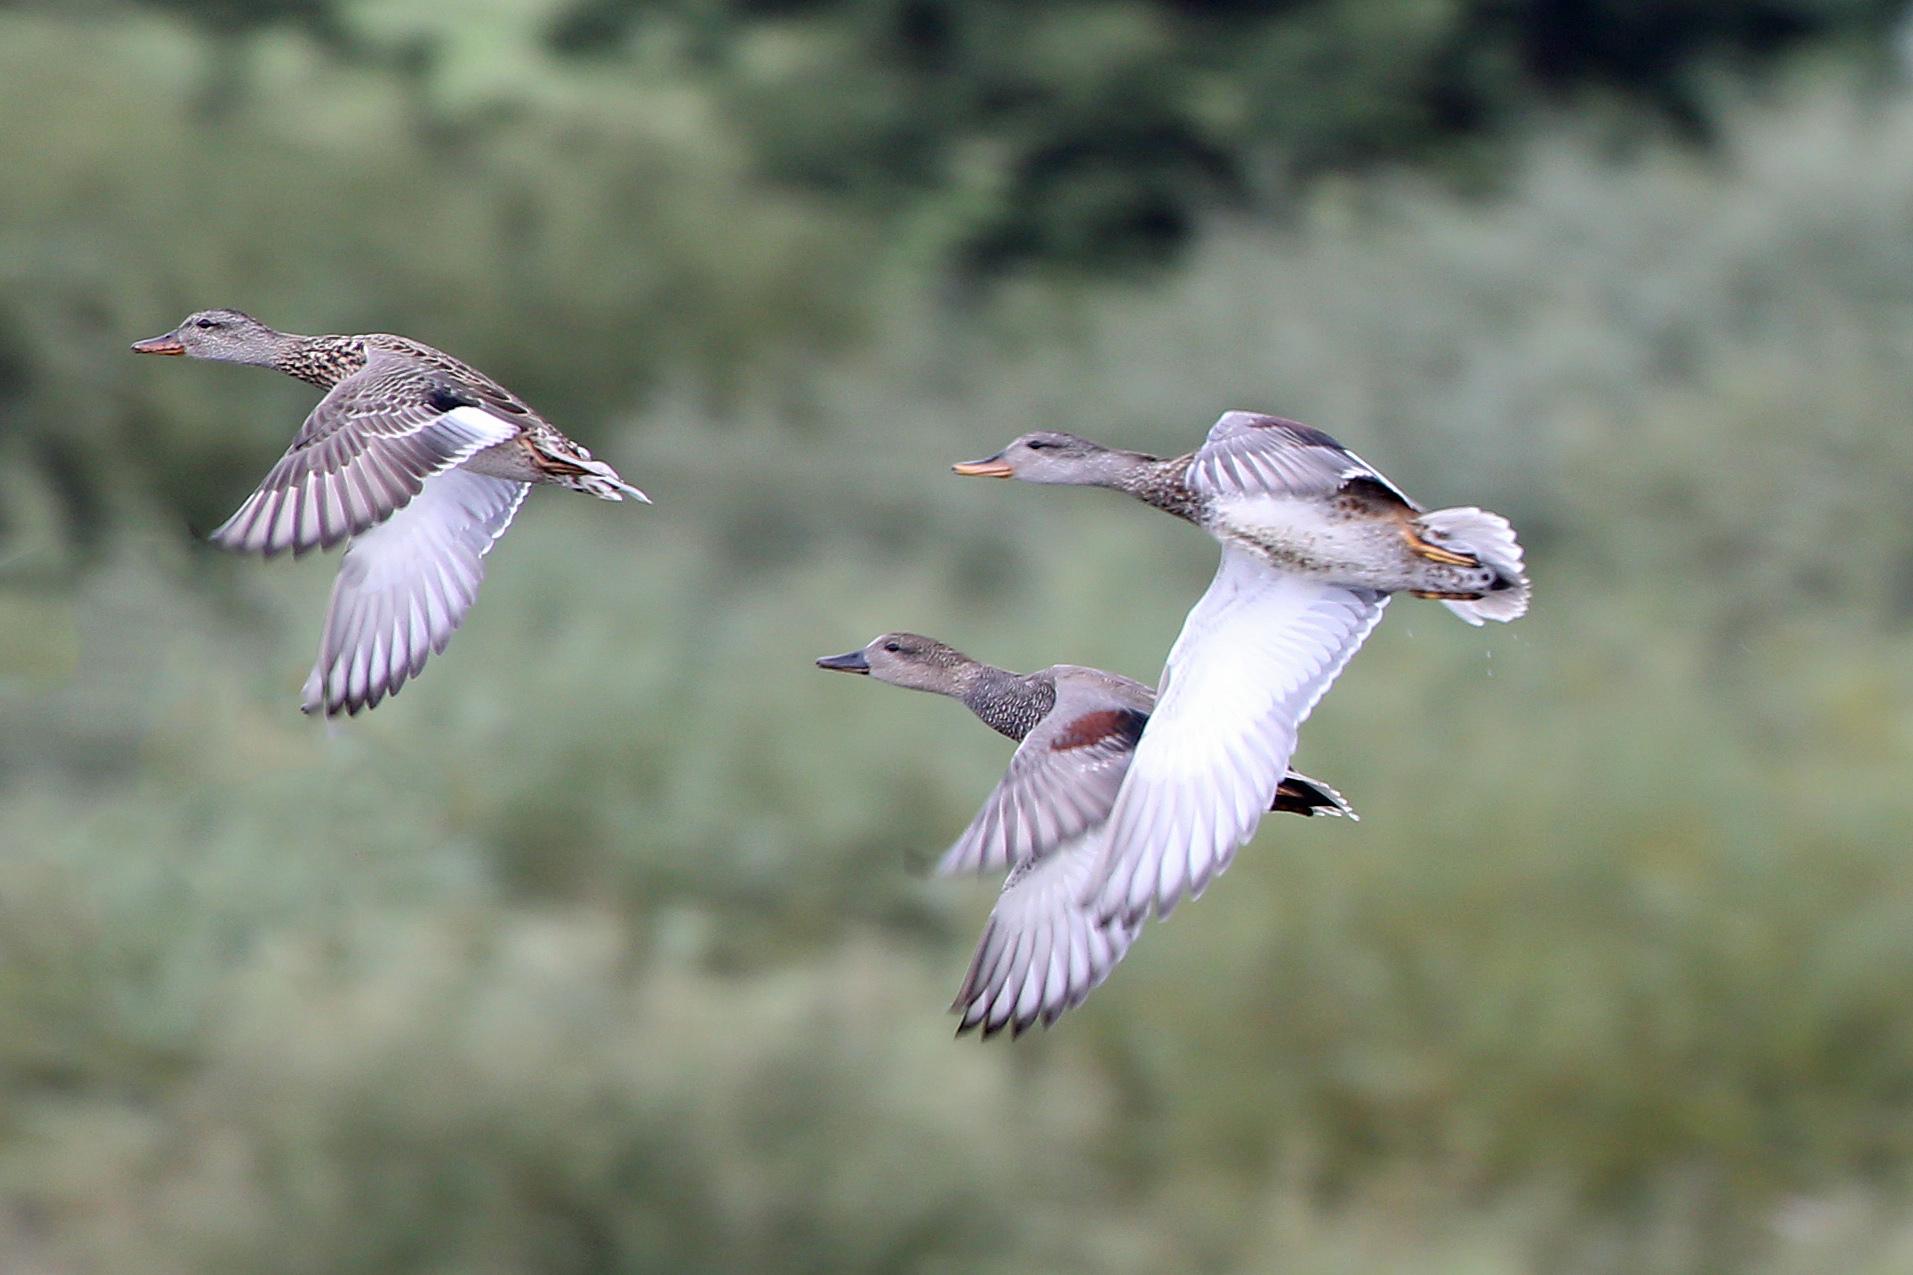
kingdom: Animalia
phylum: Chordata
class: Aves
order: Anseriformes
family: Anatidae
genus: Mareca
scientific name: Mareca strepera
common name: Gadwall
